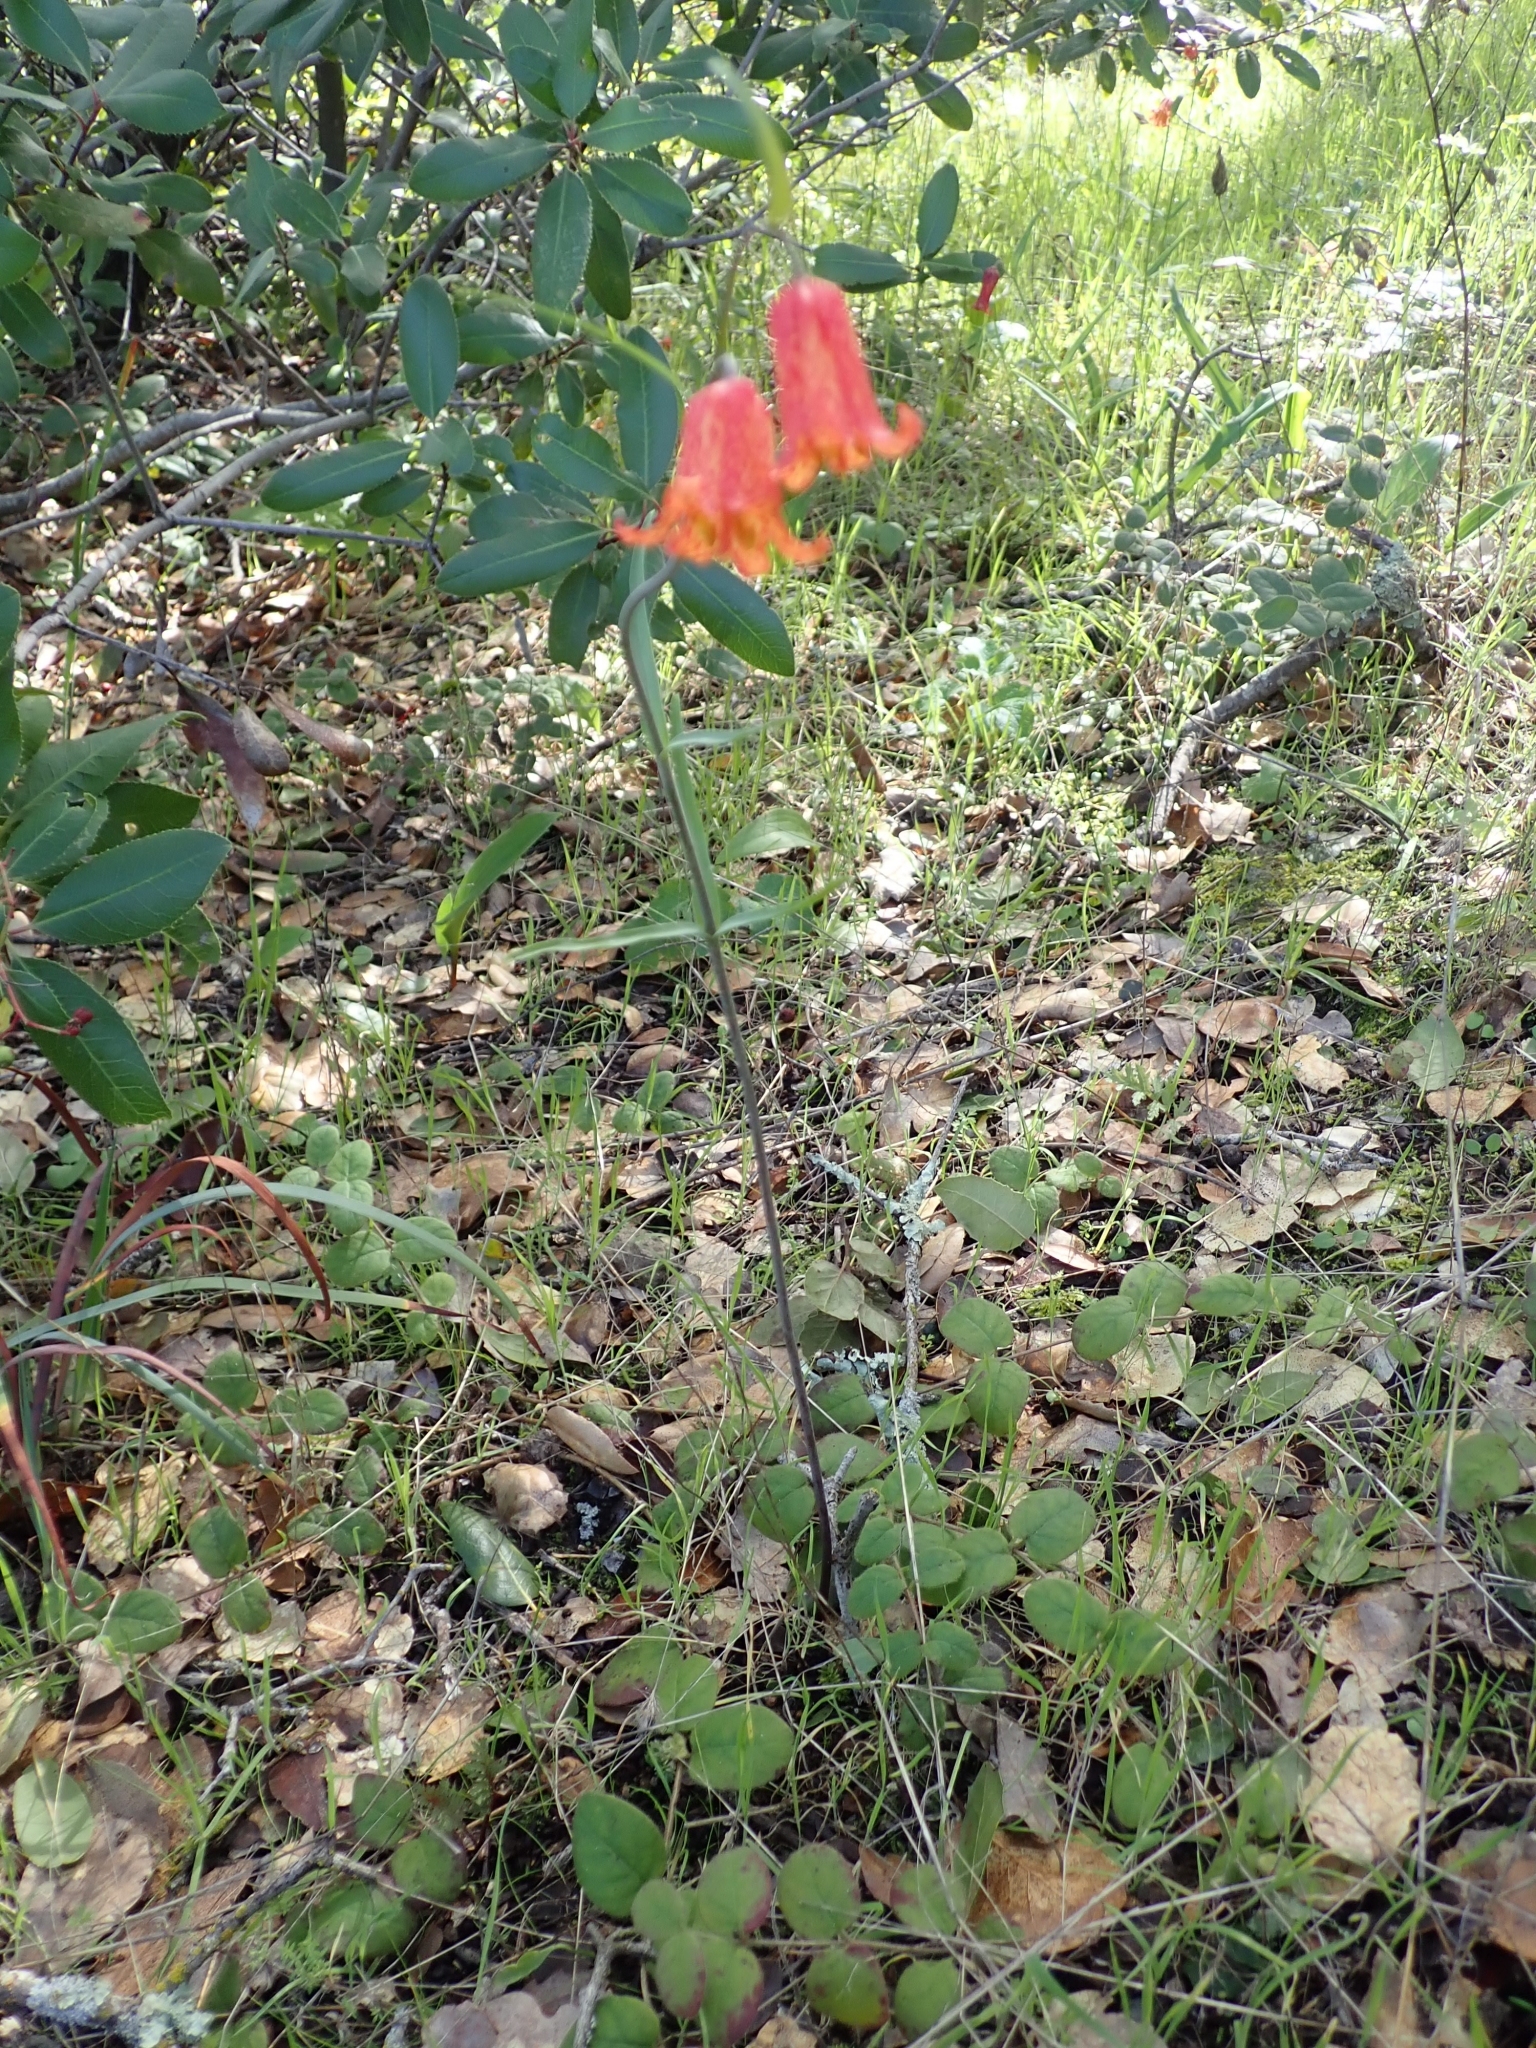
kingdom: Plantae
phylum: Tracheophyta
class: Liliopsida
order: Liliales
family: Liliaceae
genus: Fritillaria
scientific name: Fritillaria recurva
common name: Scarlet fritillary
